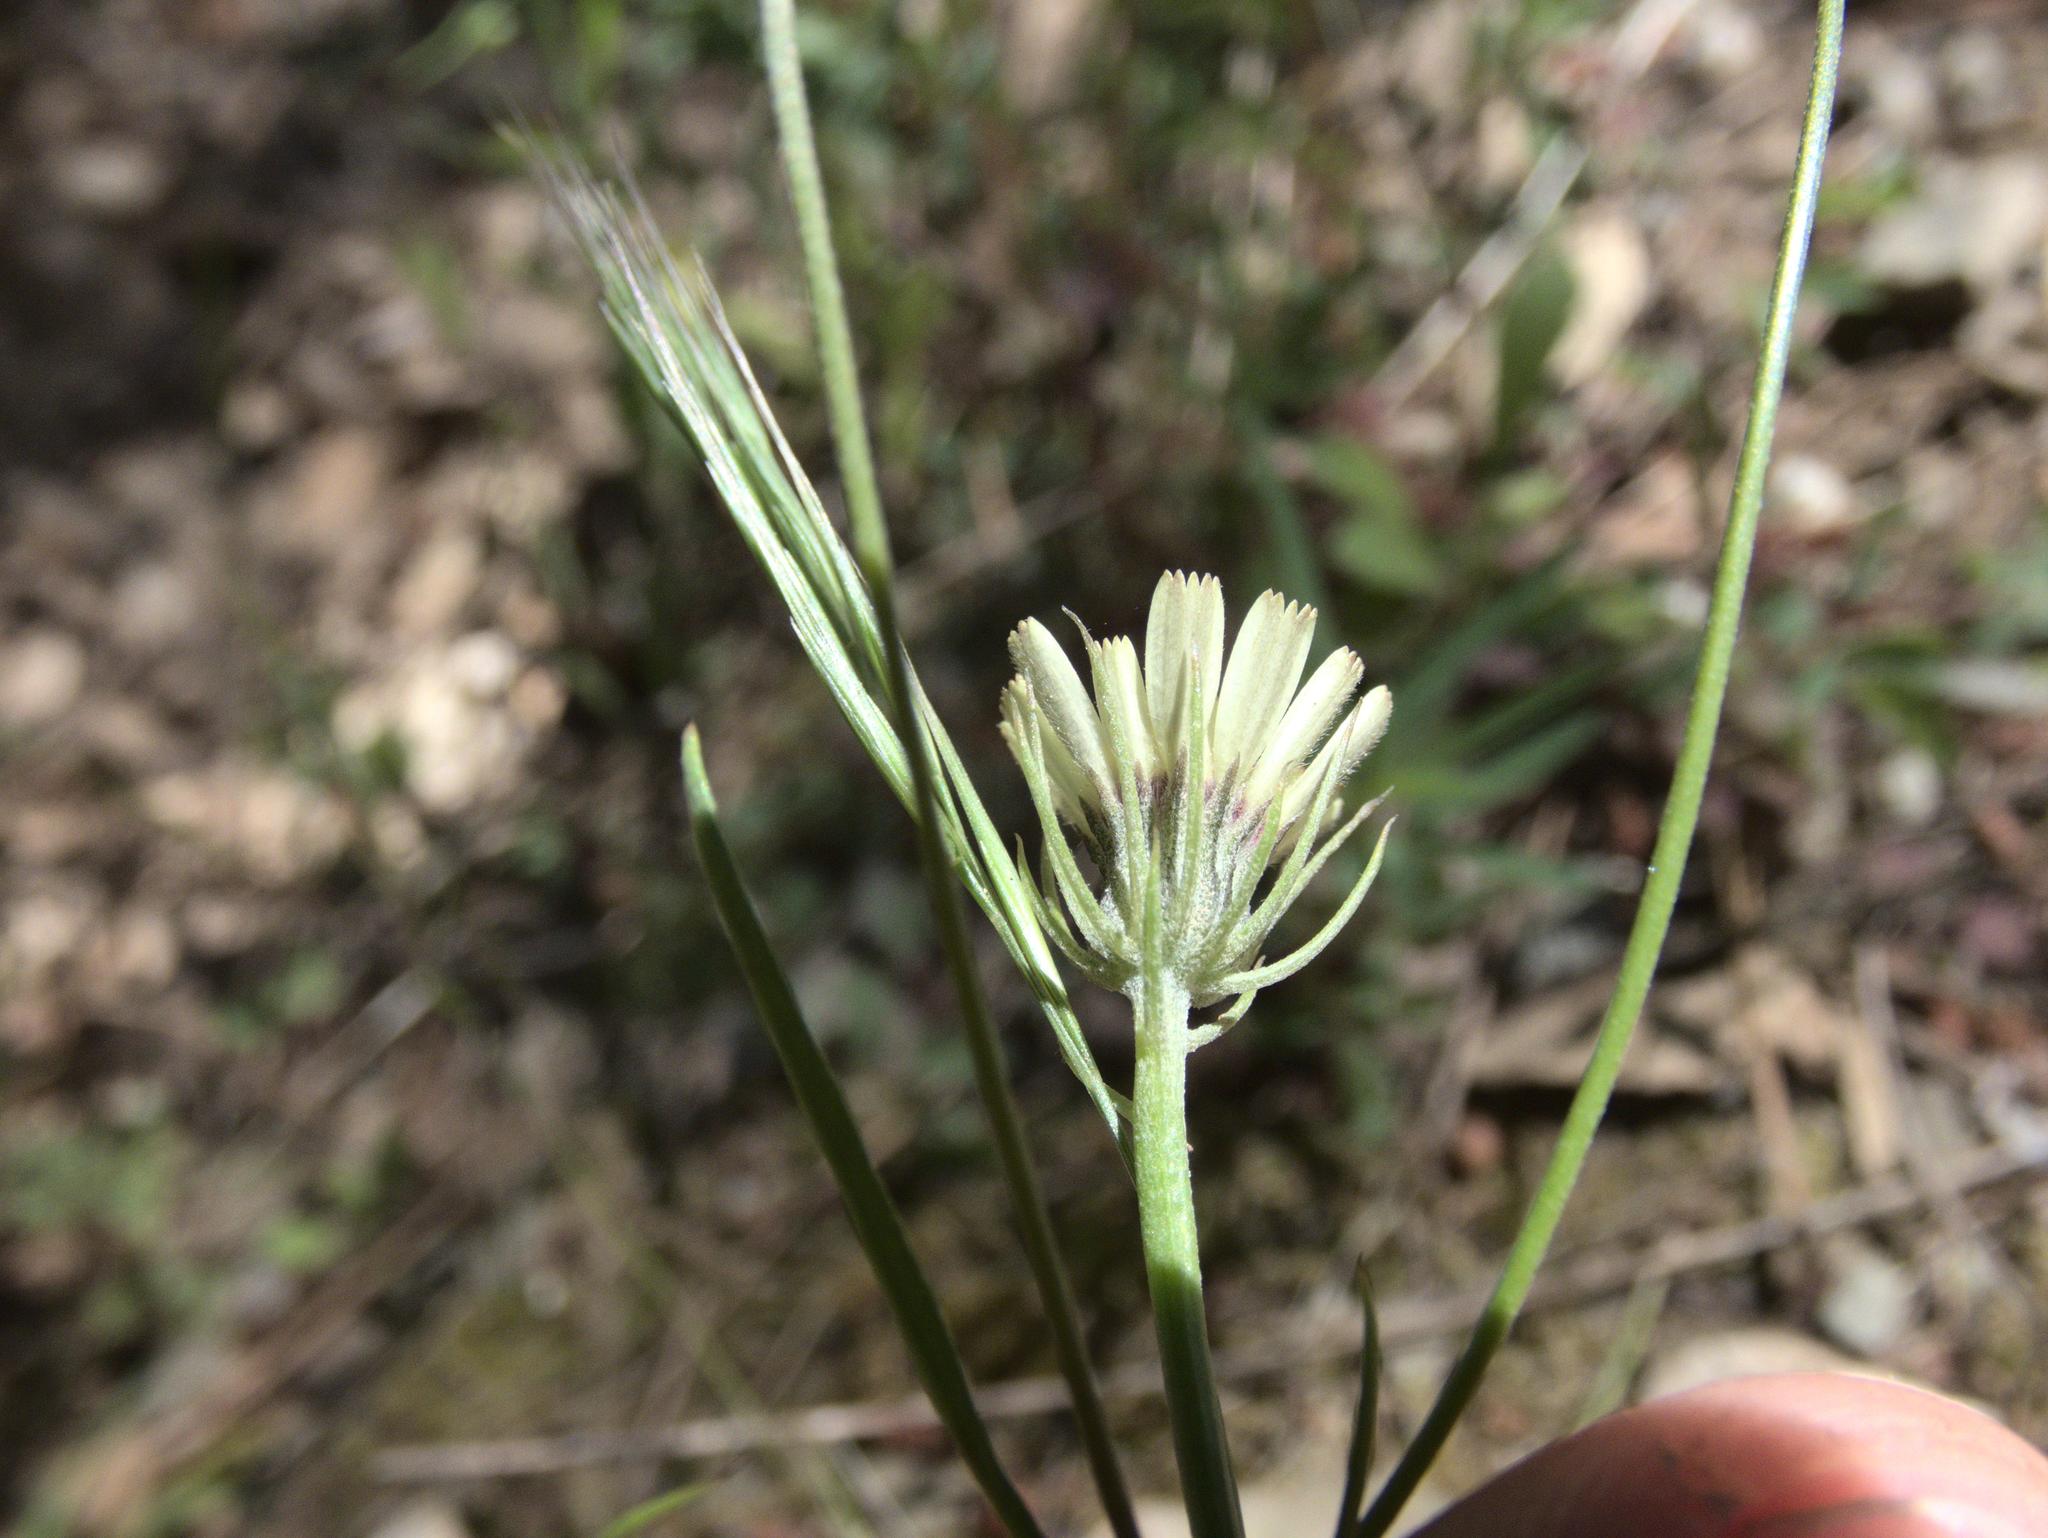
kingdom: Plantae
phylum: Tracheophyta
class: Magnoliopsida
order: Asterales
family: Asteraceae
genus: Tolpis
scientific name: Tolpis barbata
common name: Yellow hawkweed
